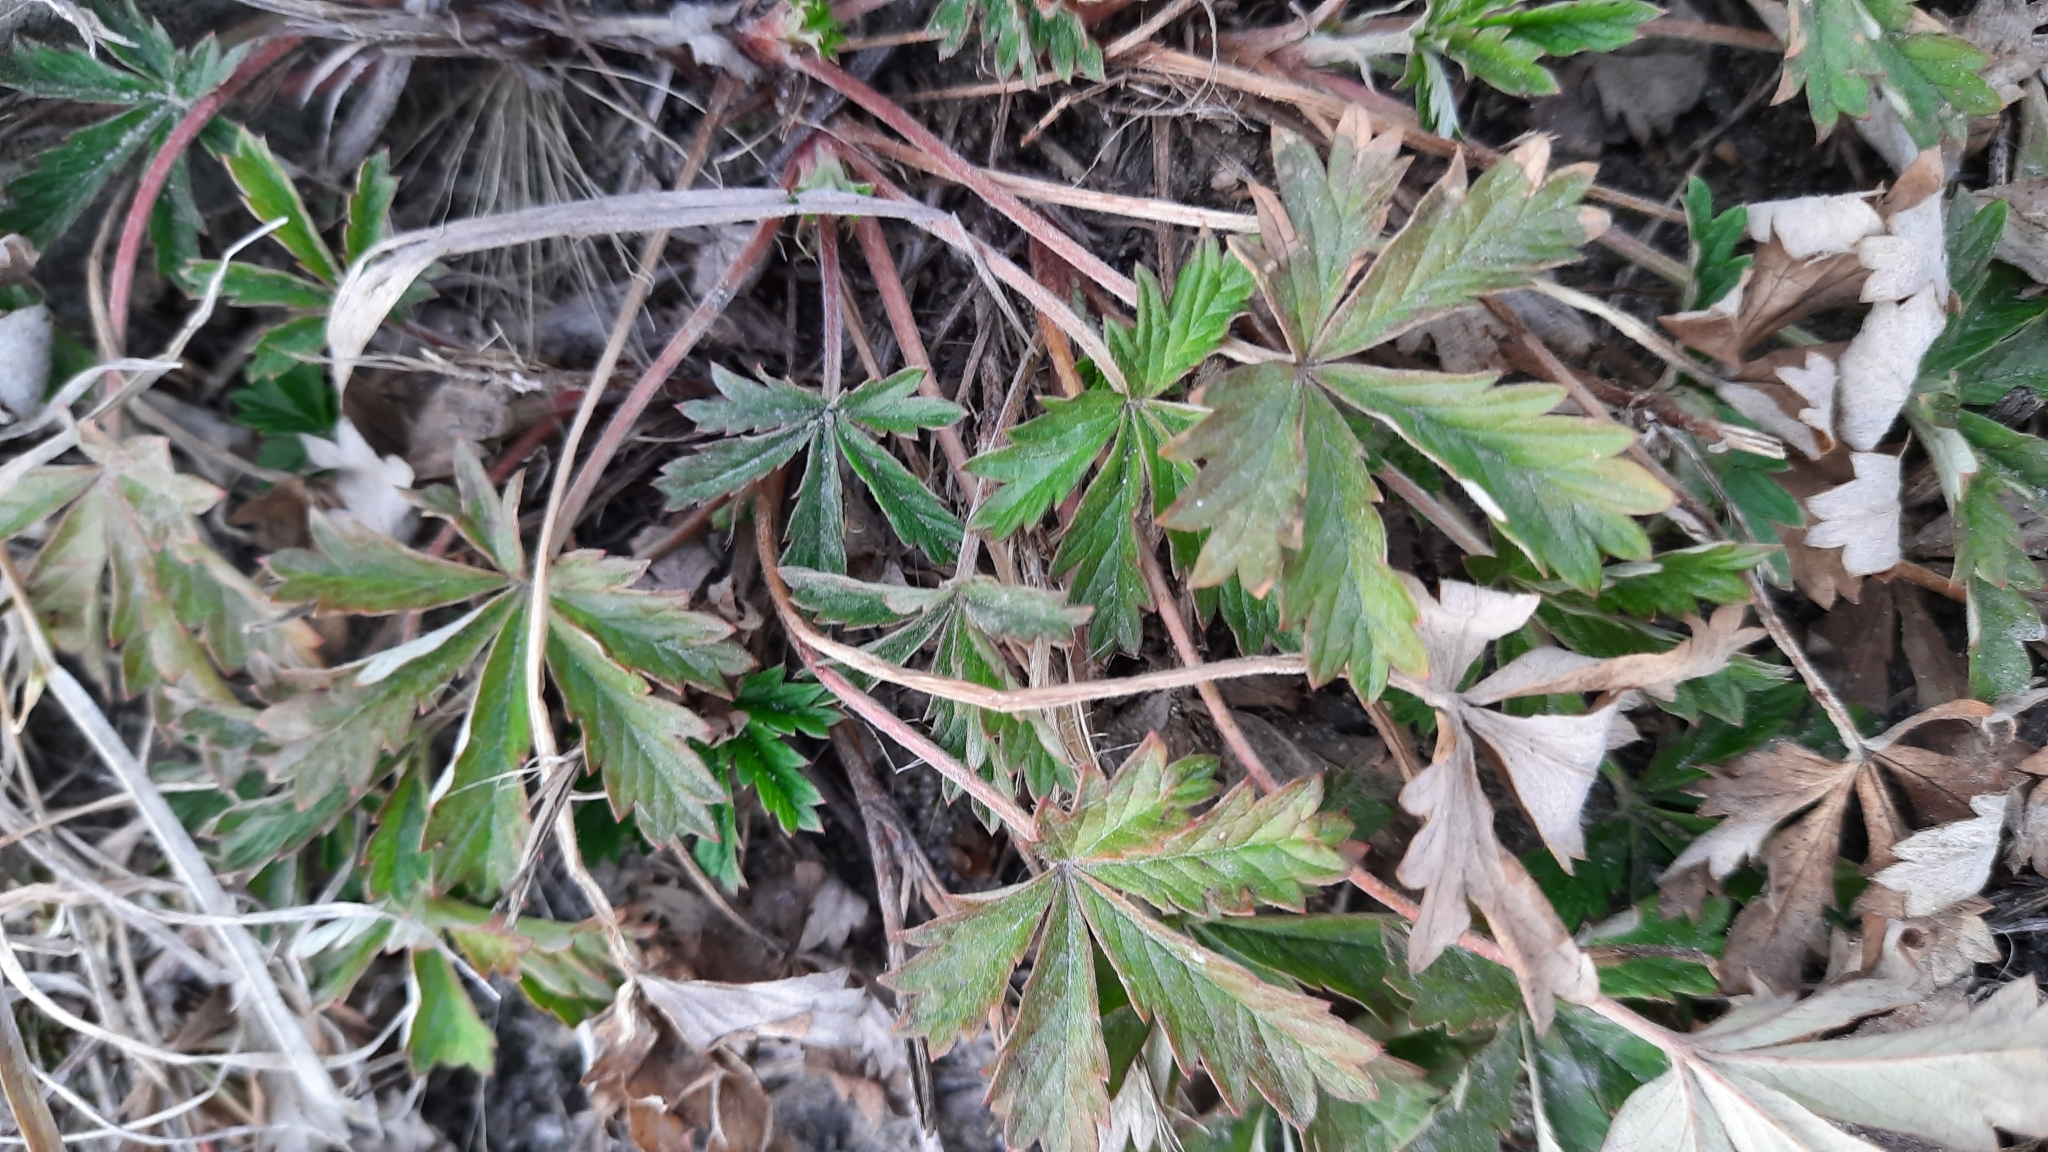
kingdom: Plantae
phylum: Tracheophyta
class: Magnoliopsida
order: Rosales
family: Rosaceae
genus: Potentilla
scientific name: Potentilla argentea
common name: Hoary cinquefoil
